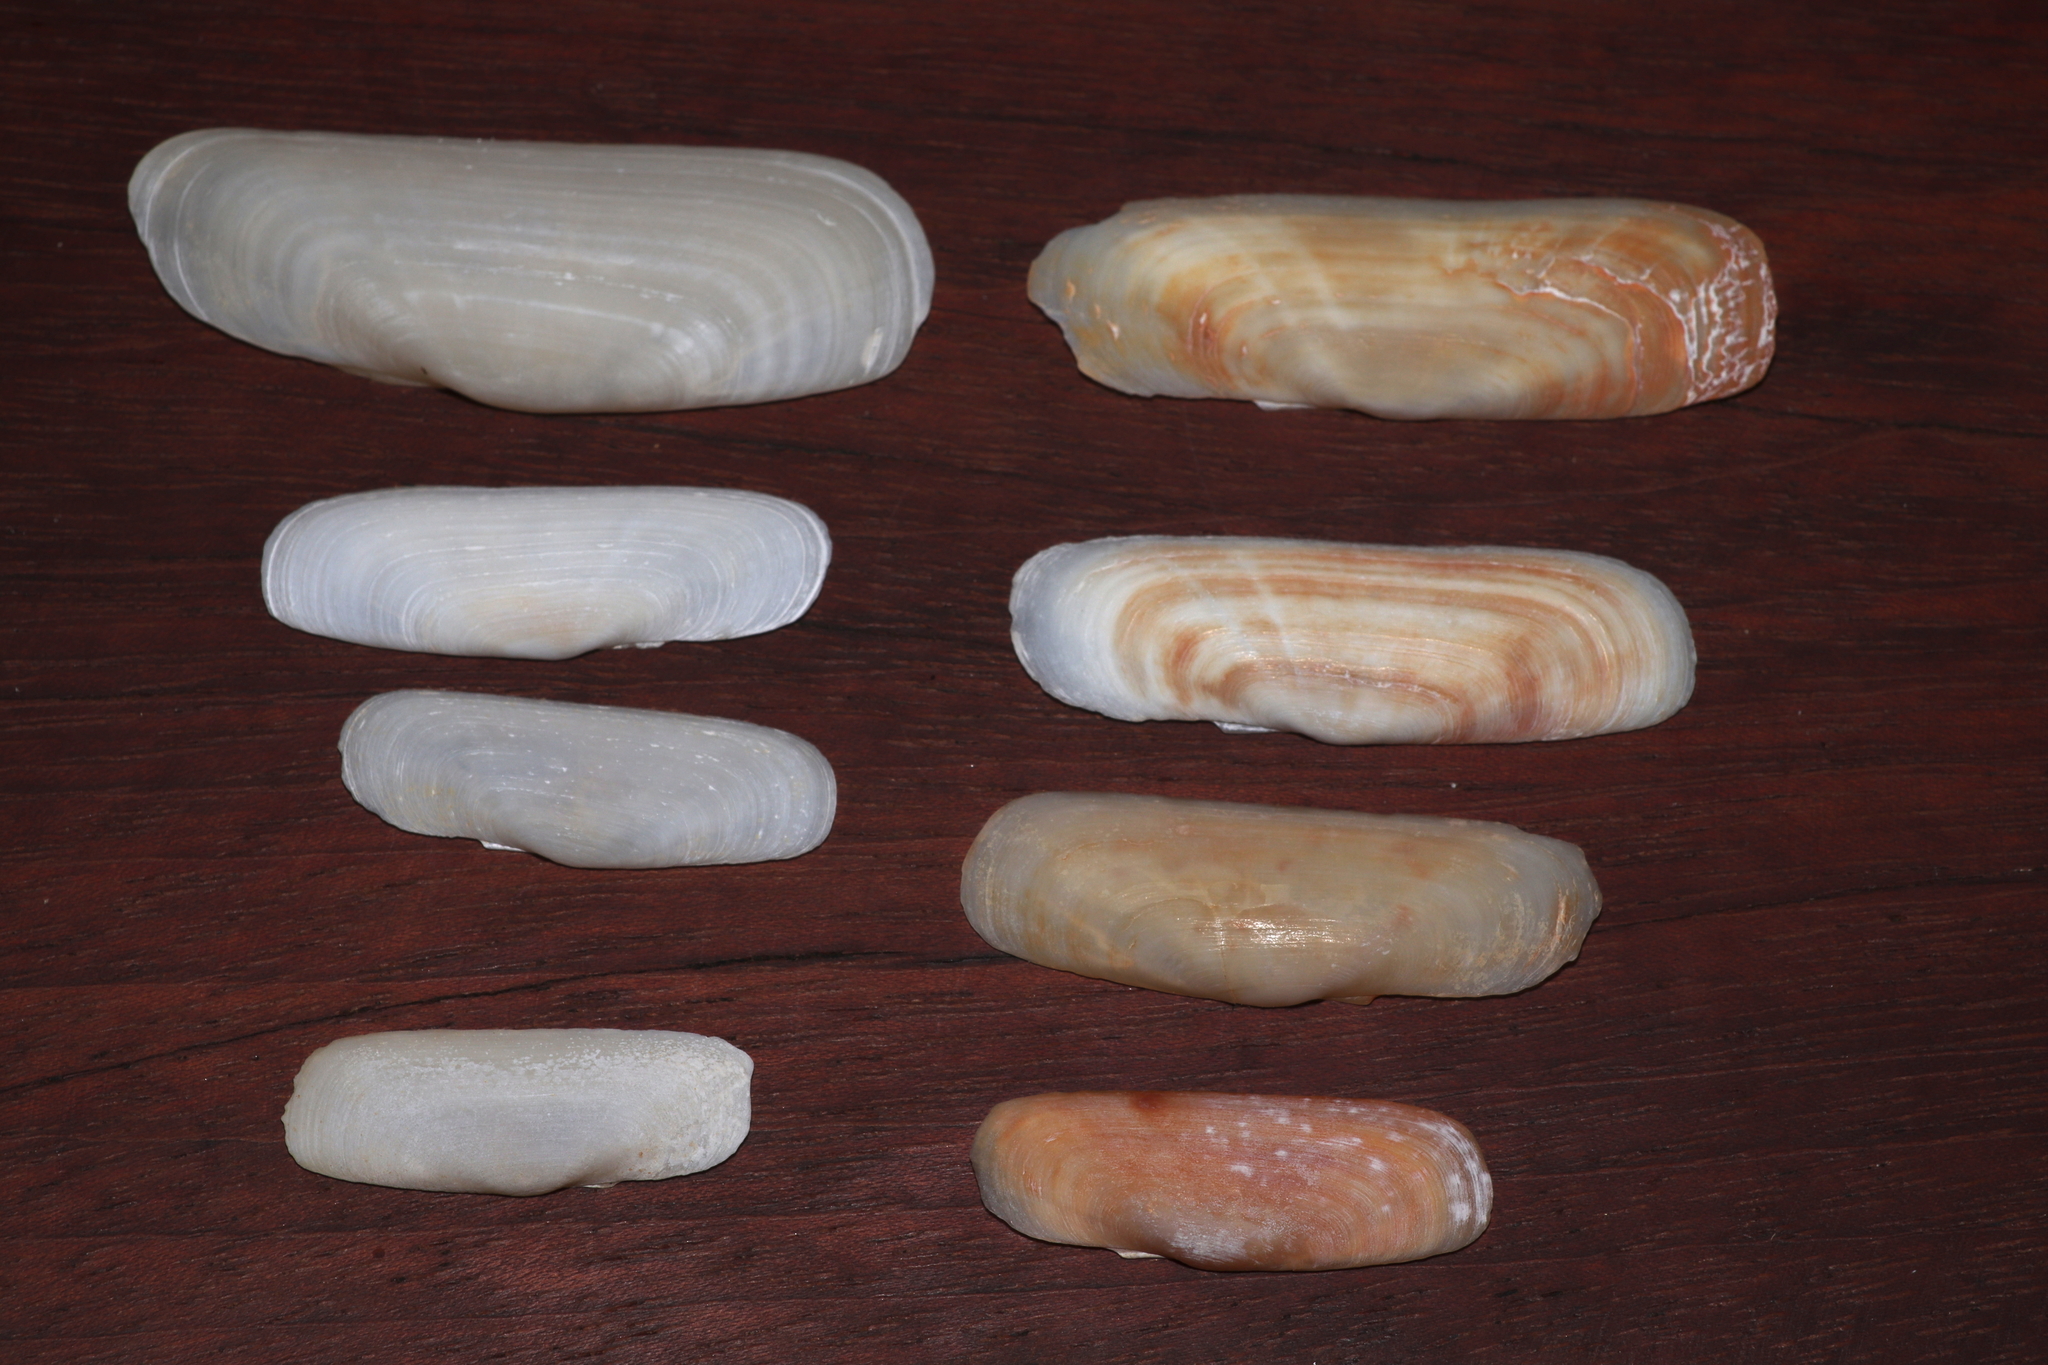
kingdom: Animalia
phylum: Mollusca
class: Bivalvia
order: Cardiida
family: Solecurtidae
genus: Tagelus
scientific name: Tagelus plebeius
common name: Stout tagelus
